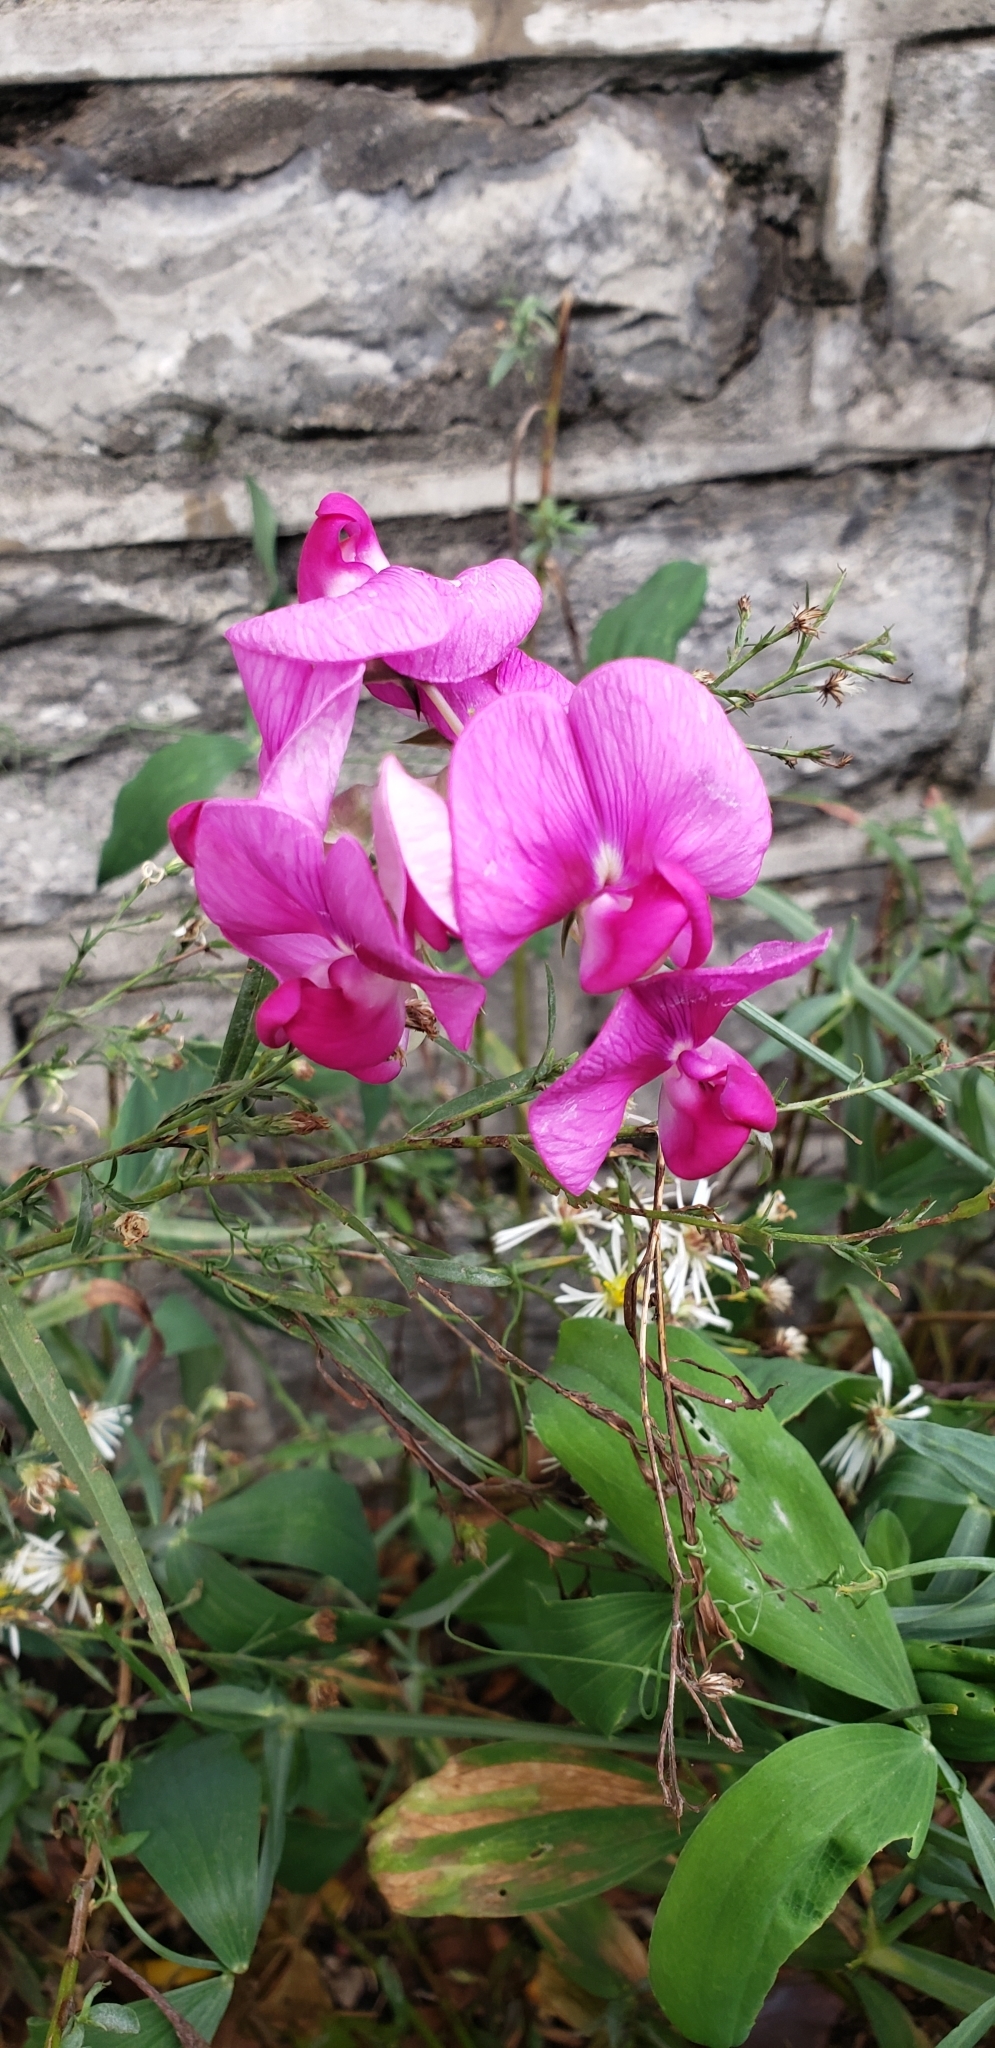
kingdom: Plantae
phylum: Tracheophyta
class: Magnoliopsida
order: Fabales
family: Fabaceae
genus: Lathyrus
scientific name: Lathyrus latifolius
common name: Perennial pea
